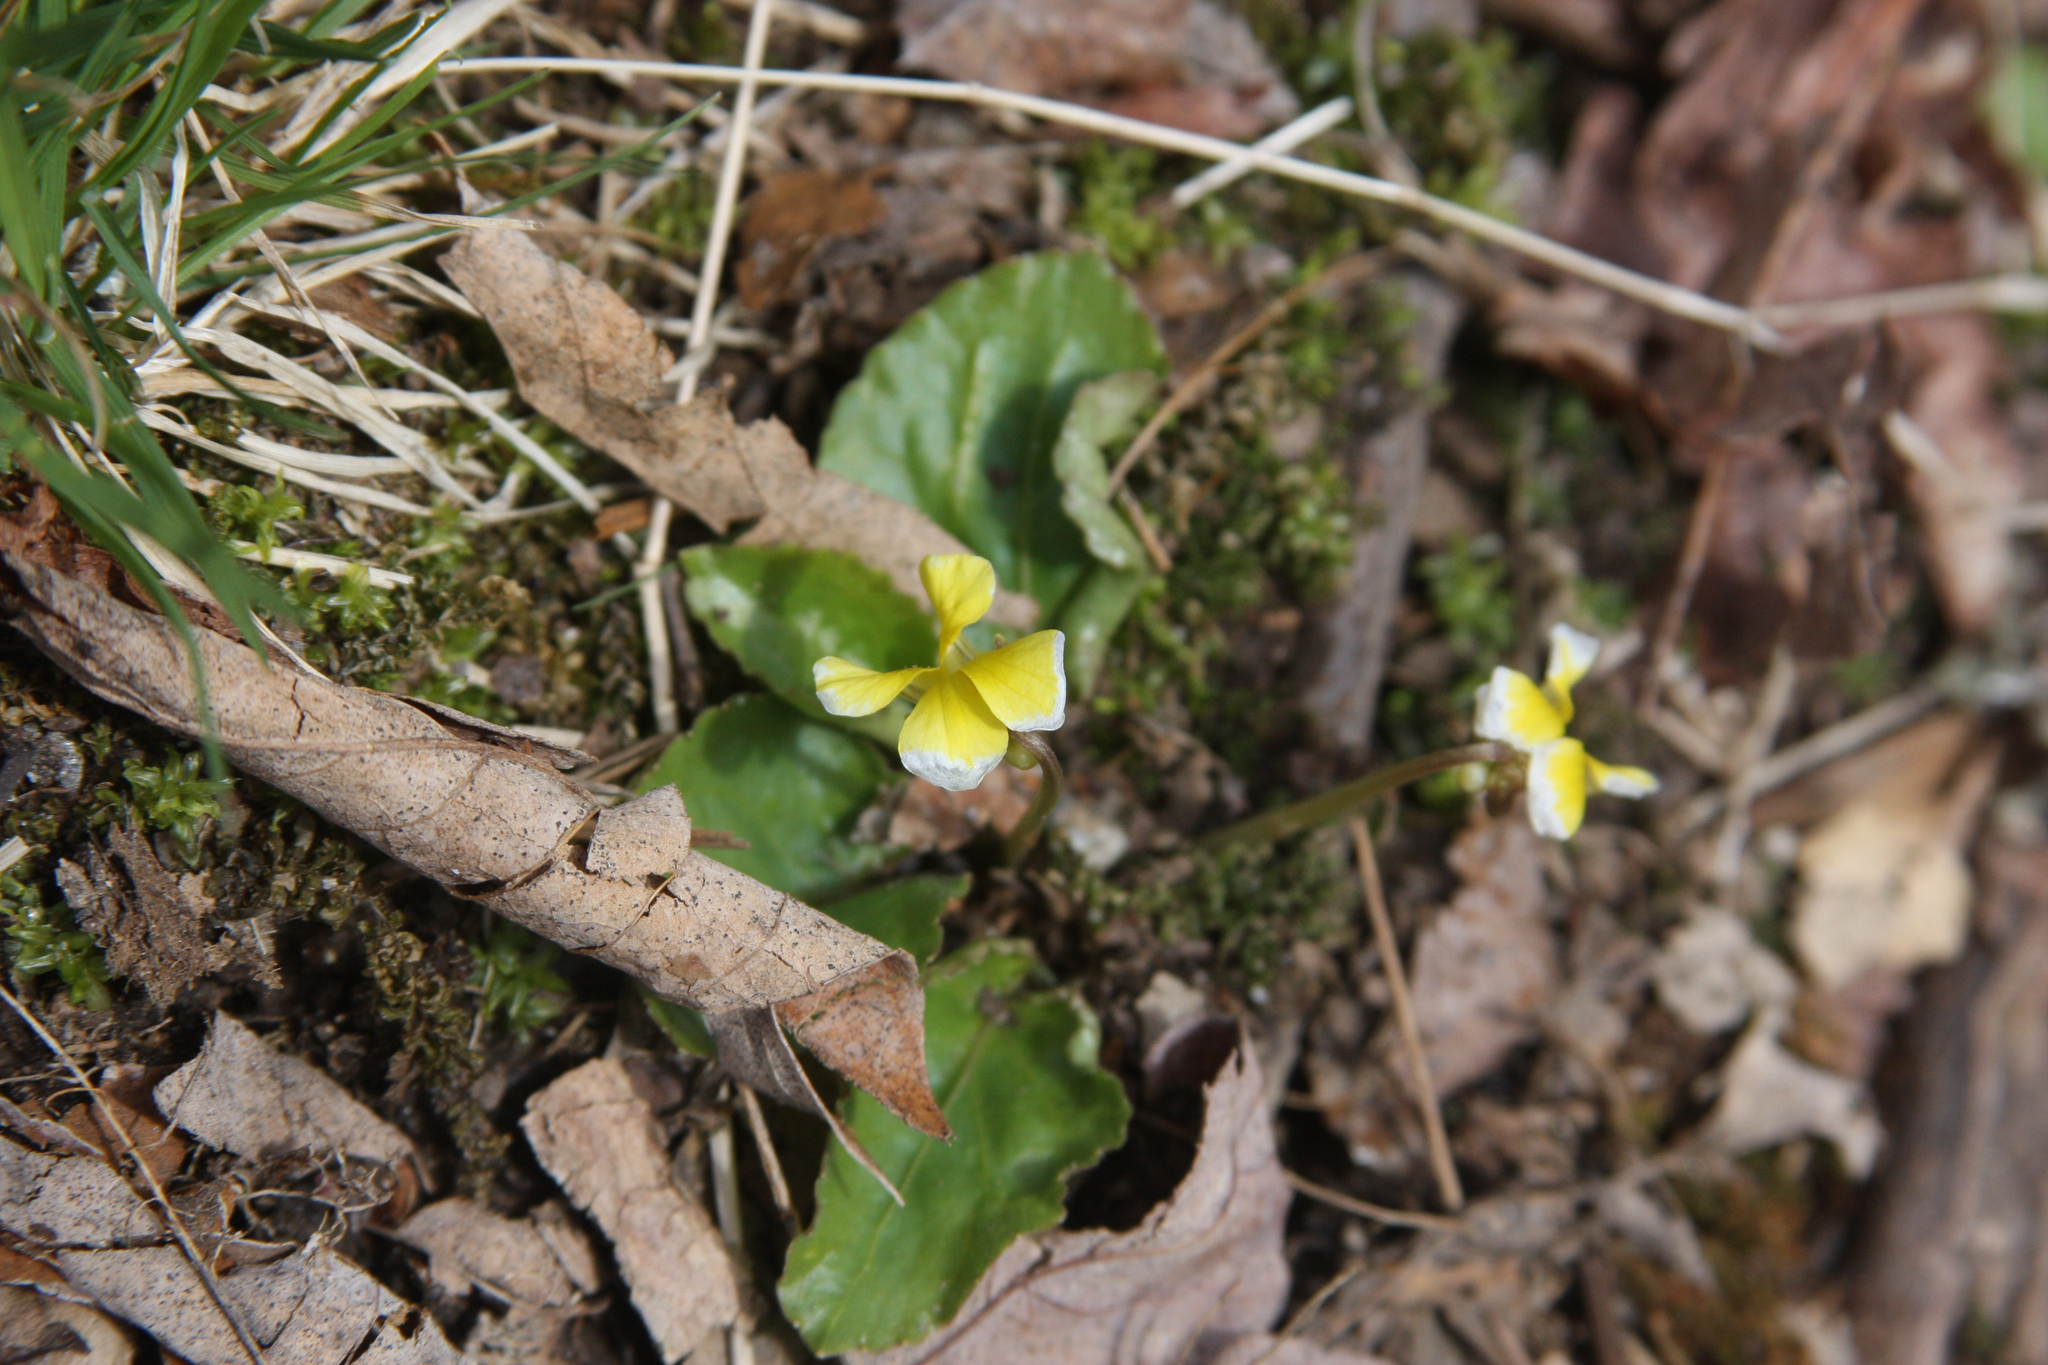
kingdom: Plantae
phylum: Tracheophyta
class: Magnoliopsida
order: Malpighiales
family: Violaceae
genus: Viola
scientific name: Viola rotundifolia
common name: Early yellow violet
